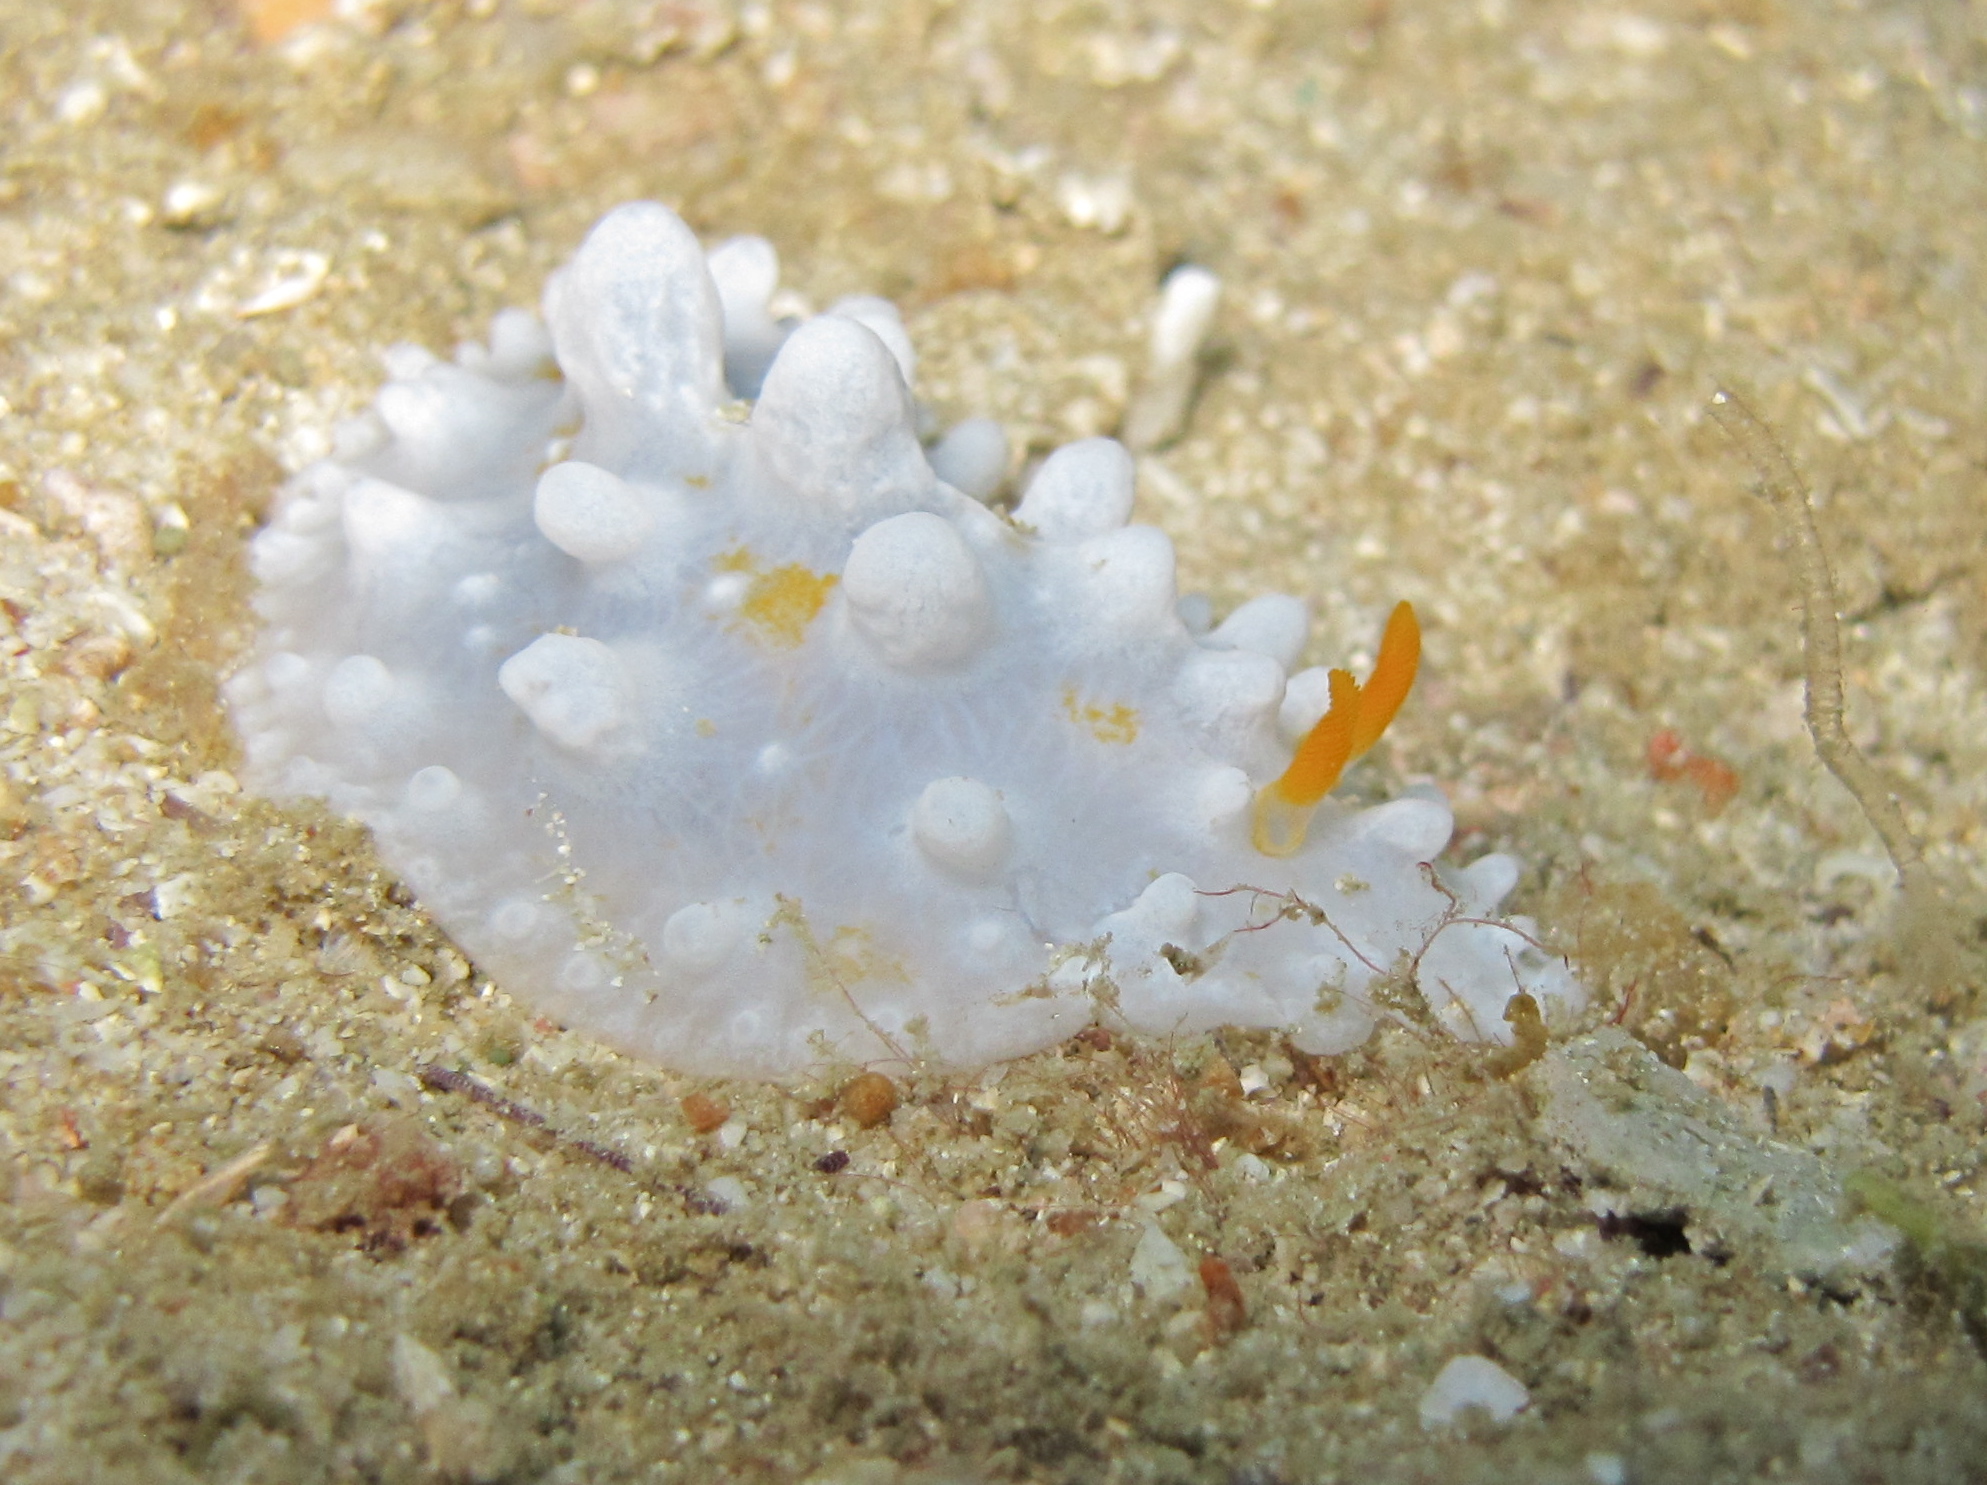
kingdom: Animalia
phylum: Mollusca
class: Gastropoda
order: Nudibranchia
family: Phyllidiidae
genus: Phyllidia
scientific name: Phyllidia ocellata
